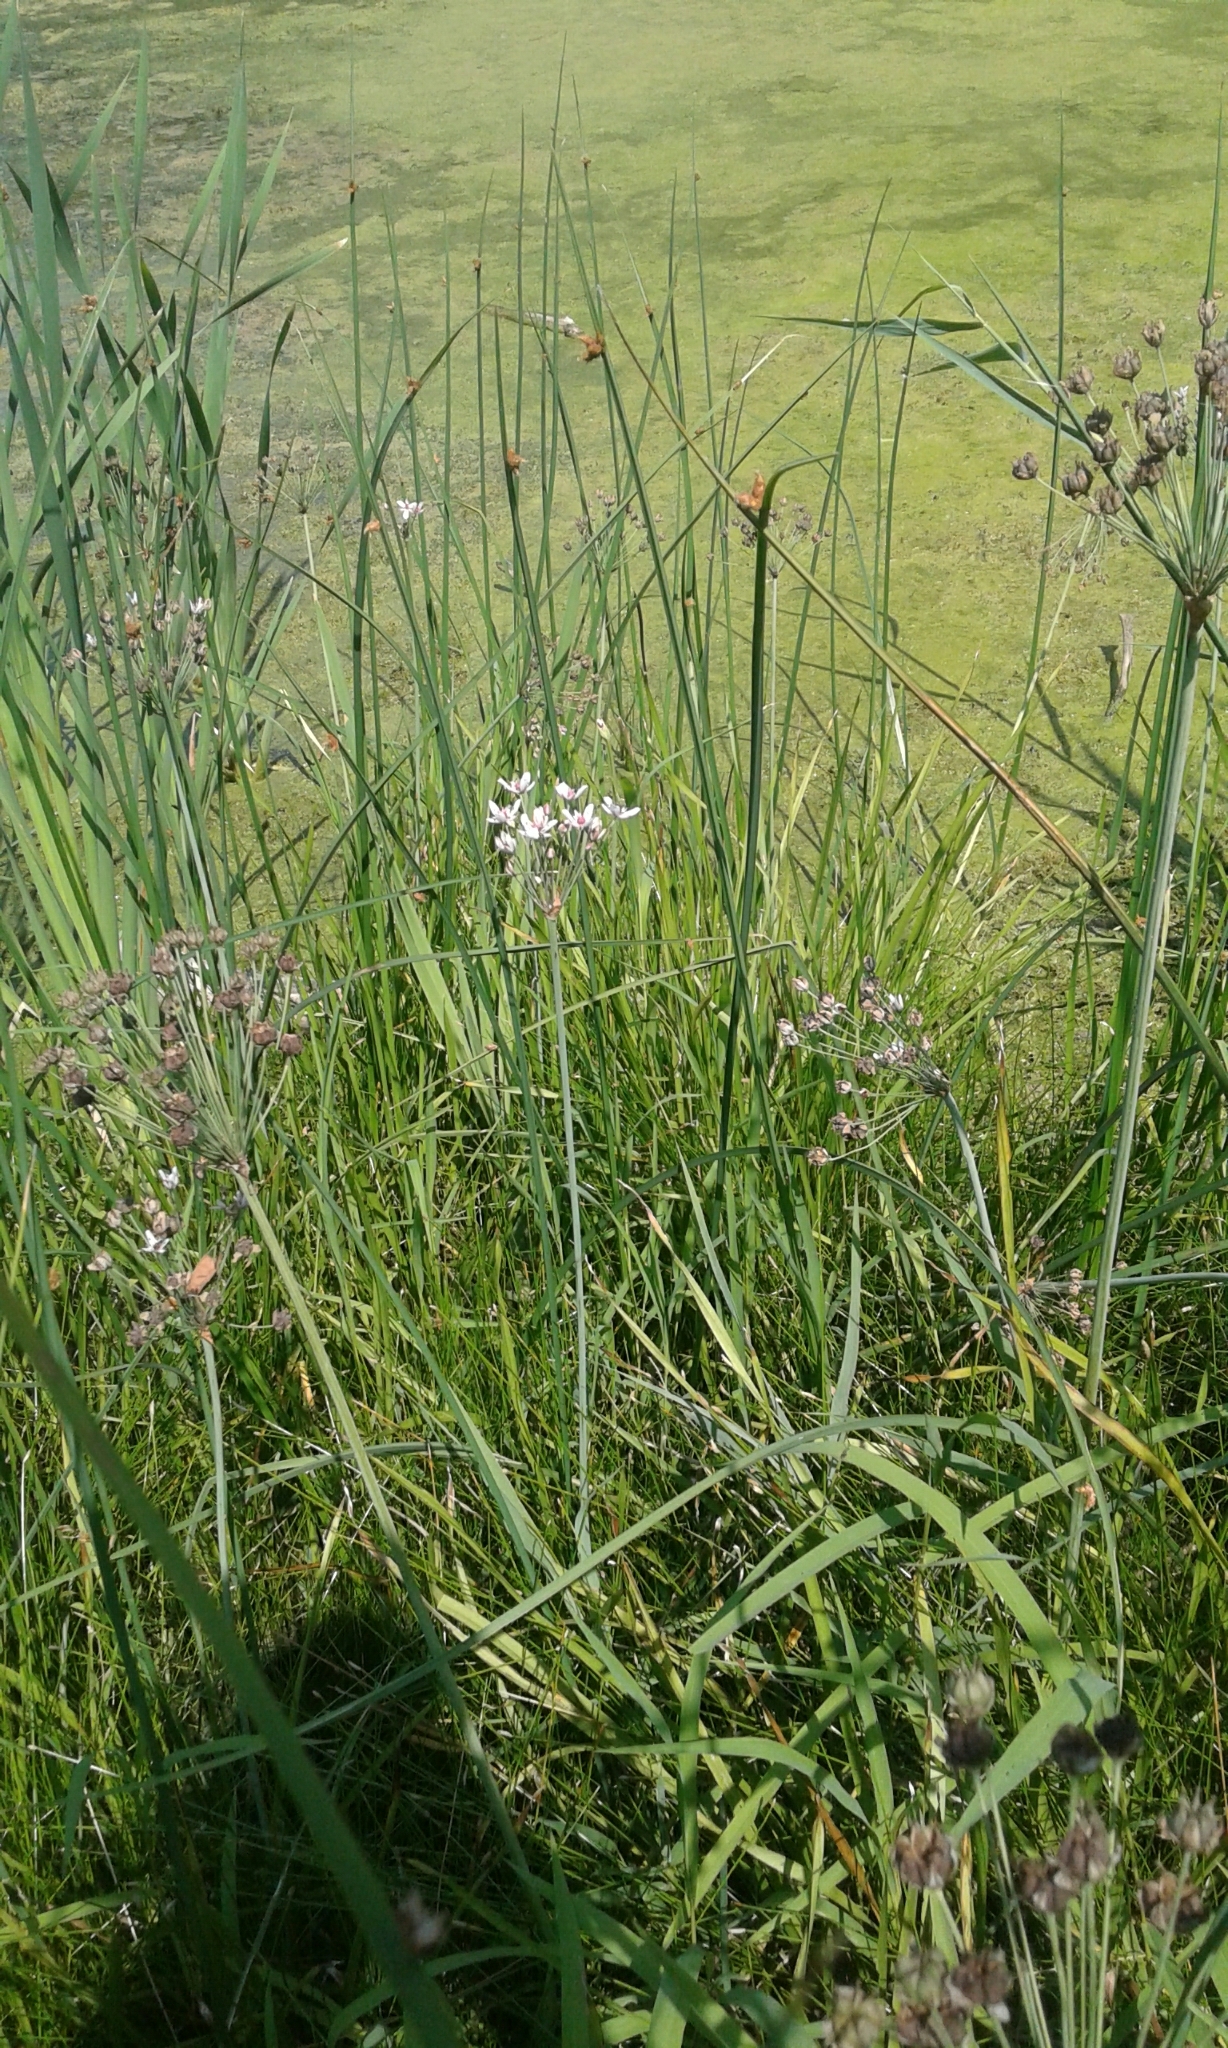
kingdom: Plantae
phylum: Tracheophyta
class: Liliopsida
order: Alismatales
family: Butomaceae
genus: Butomus
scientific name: Butomus umbellatus
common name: Flowering-rush
